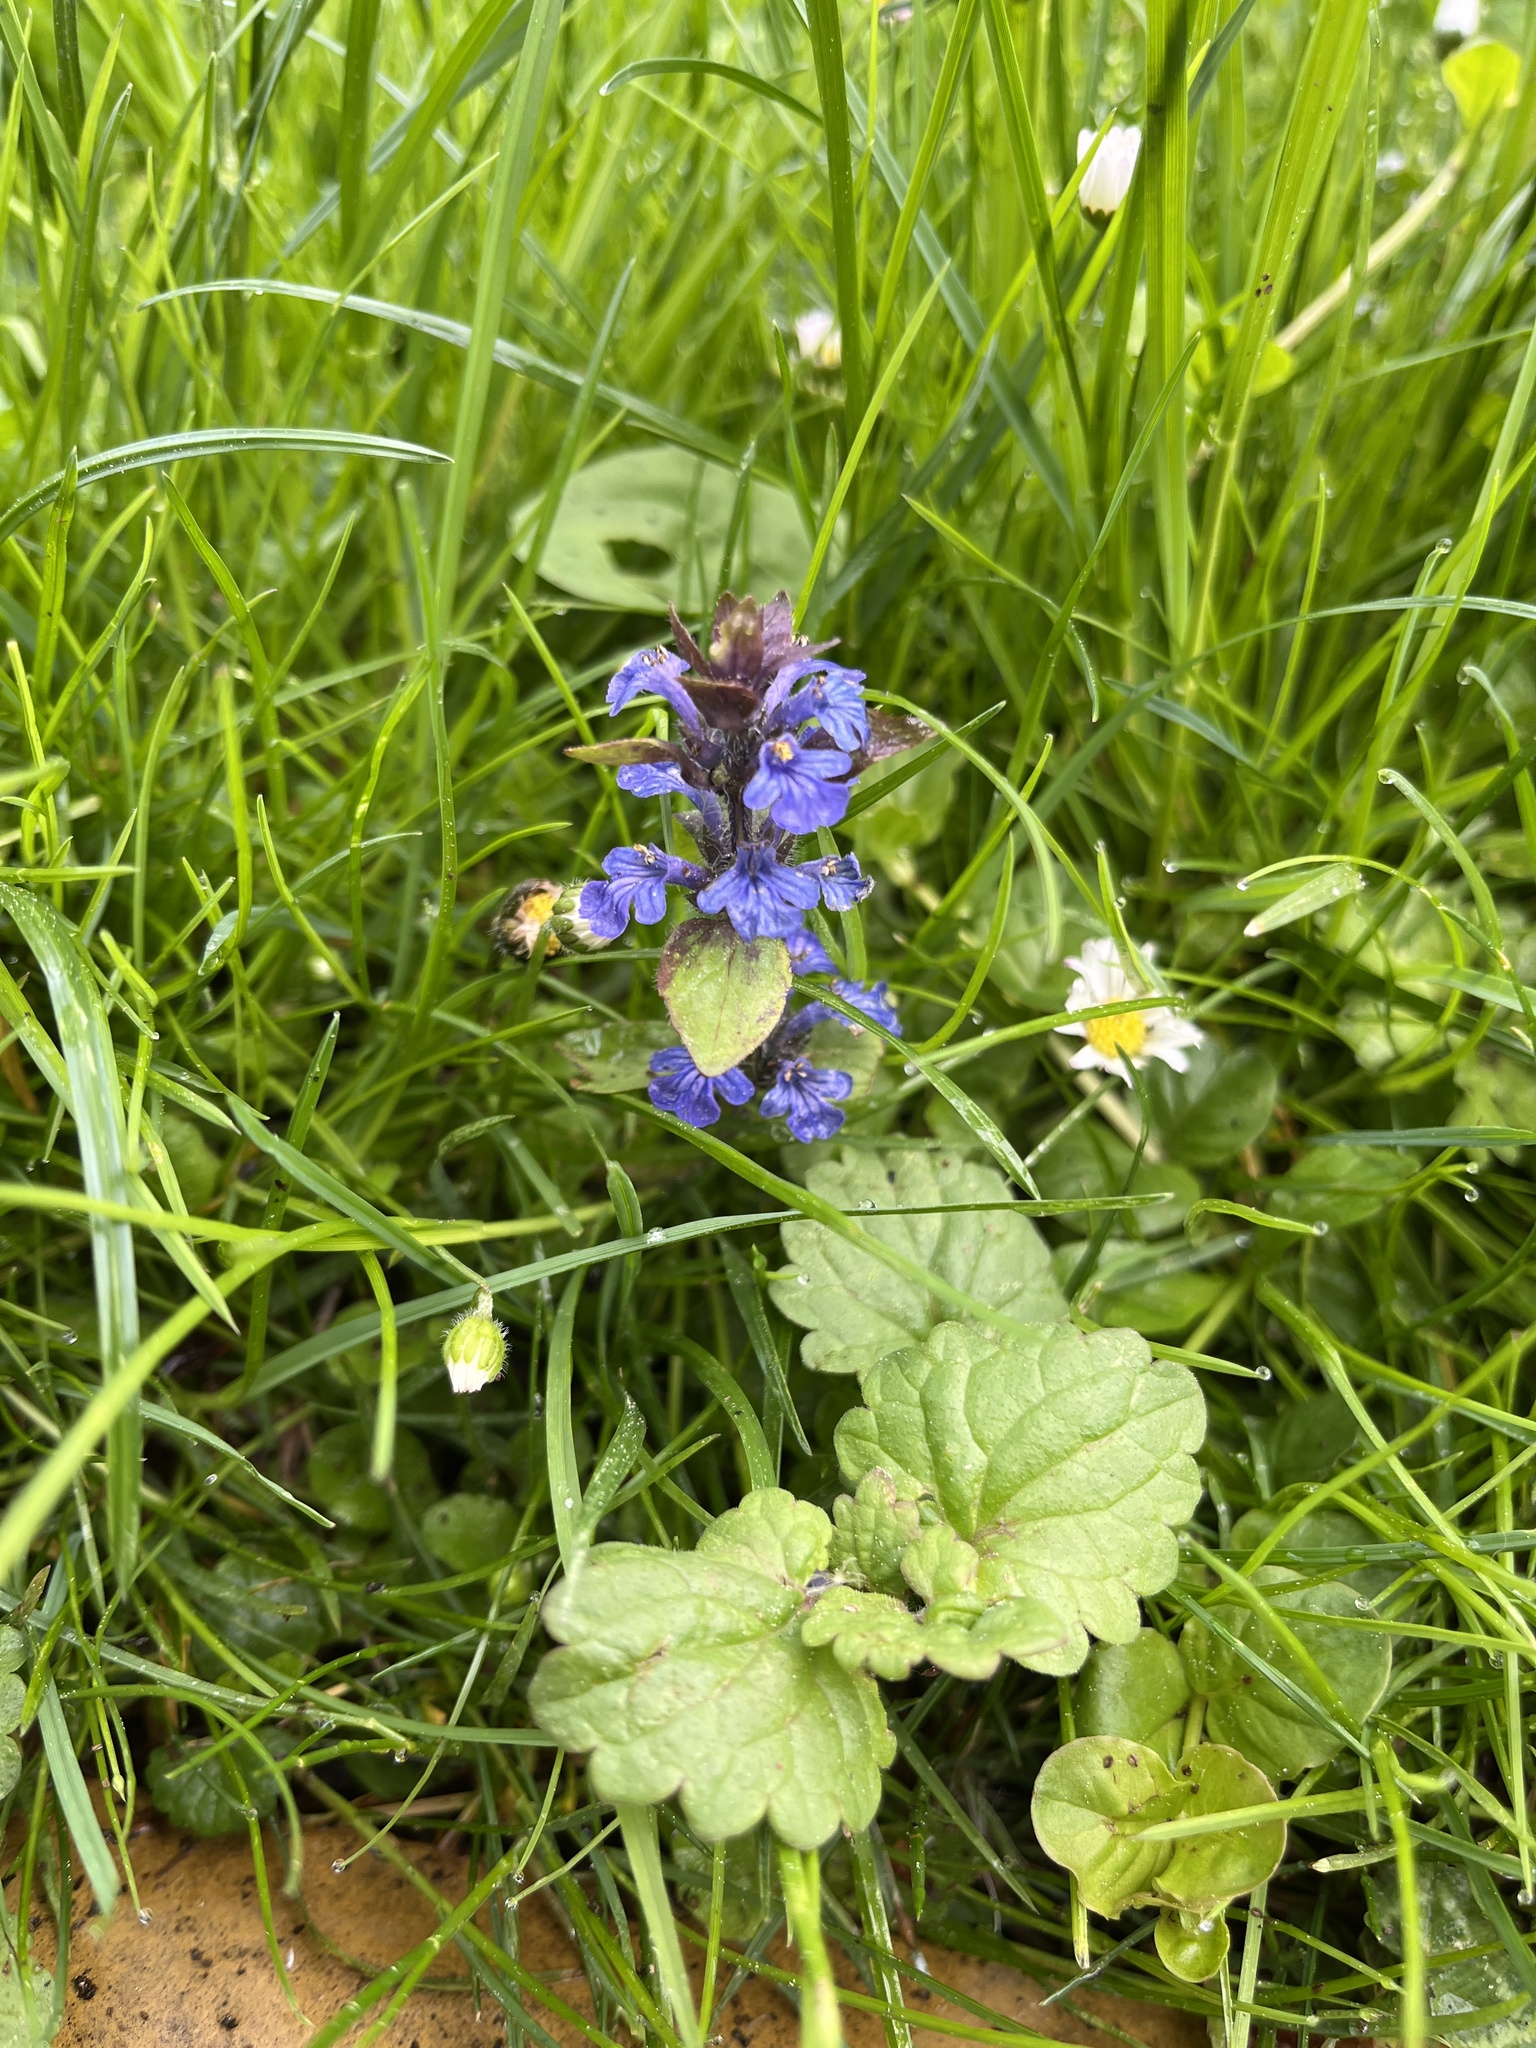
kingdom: Plantae
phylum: Tracheophyta
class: Magnoliopsida
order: Lamiales
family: Lamiaceae
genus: Ajuga
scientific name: Ajuga reptans
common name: Bugle
